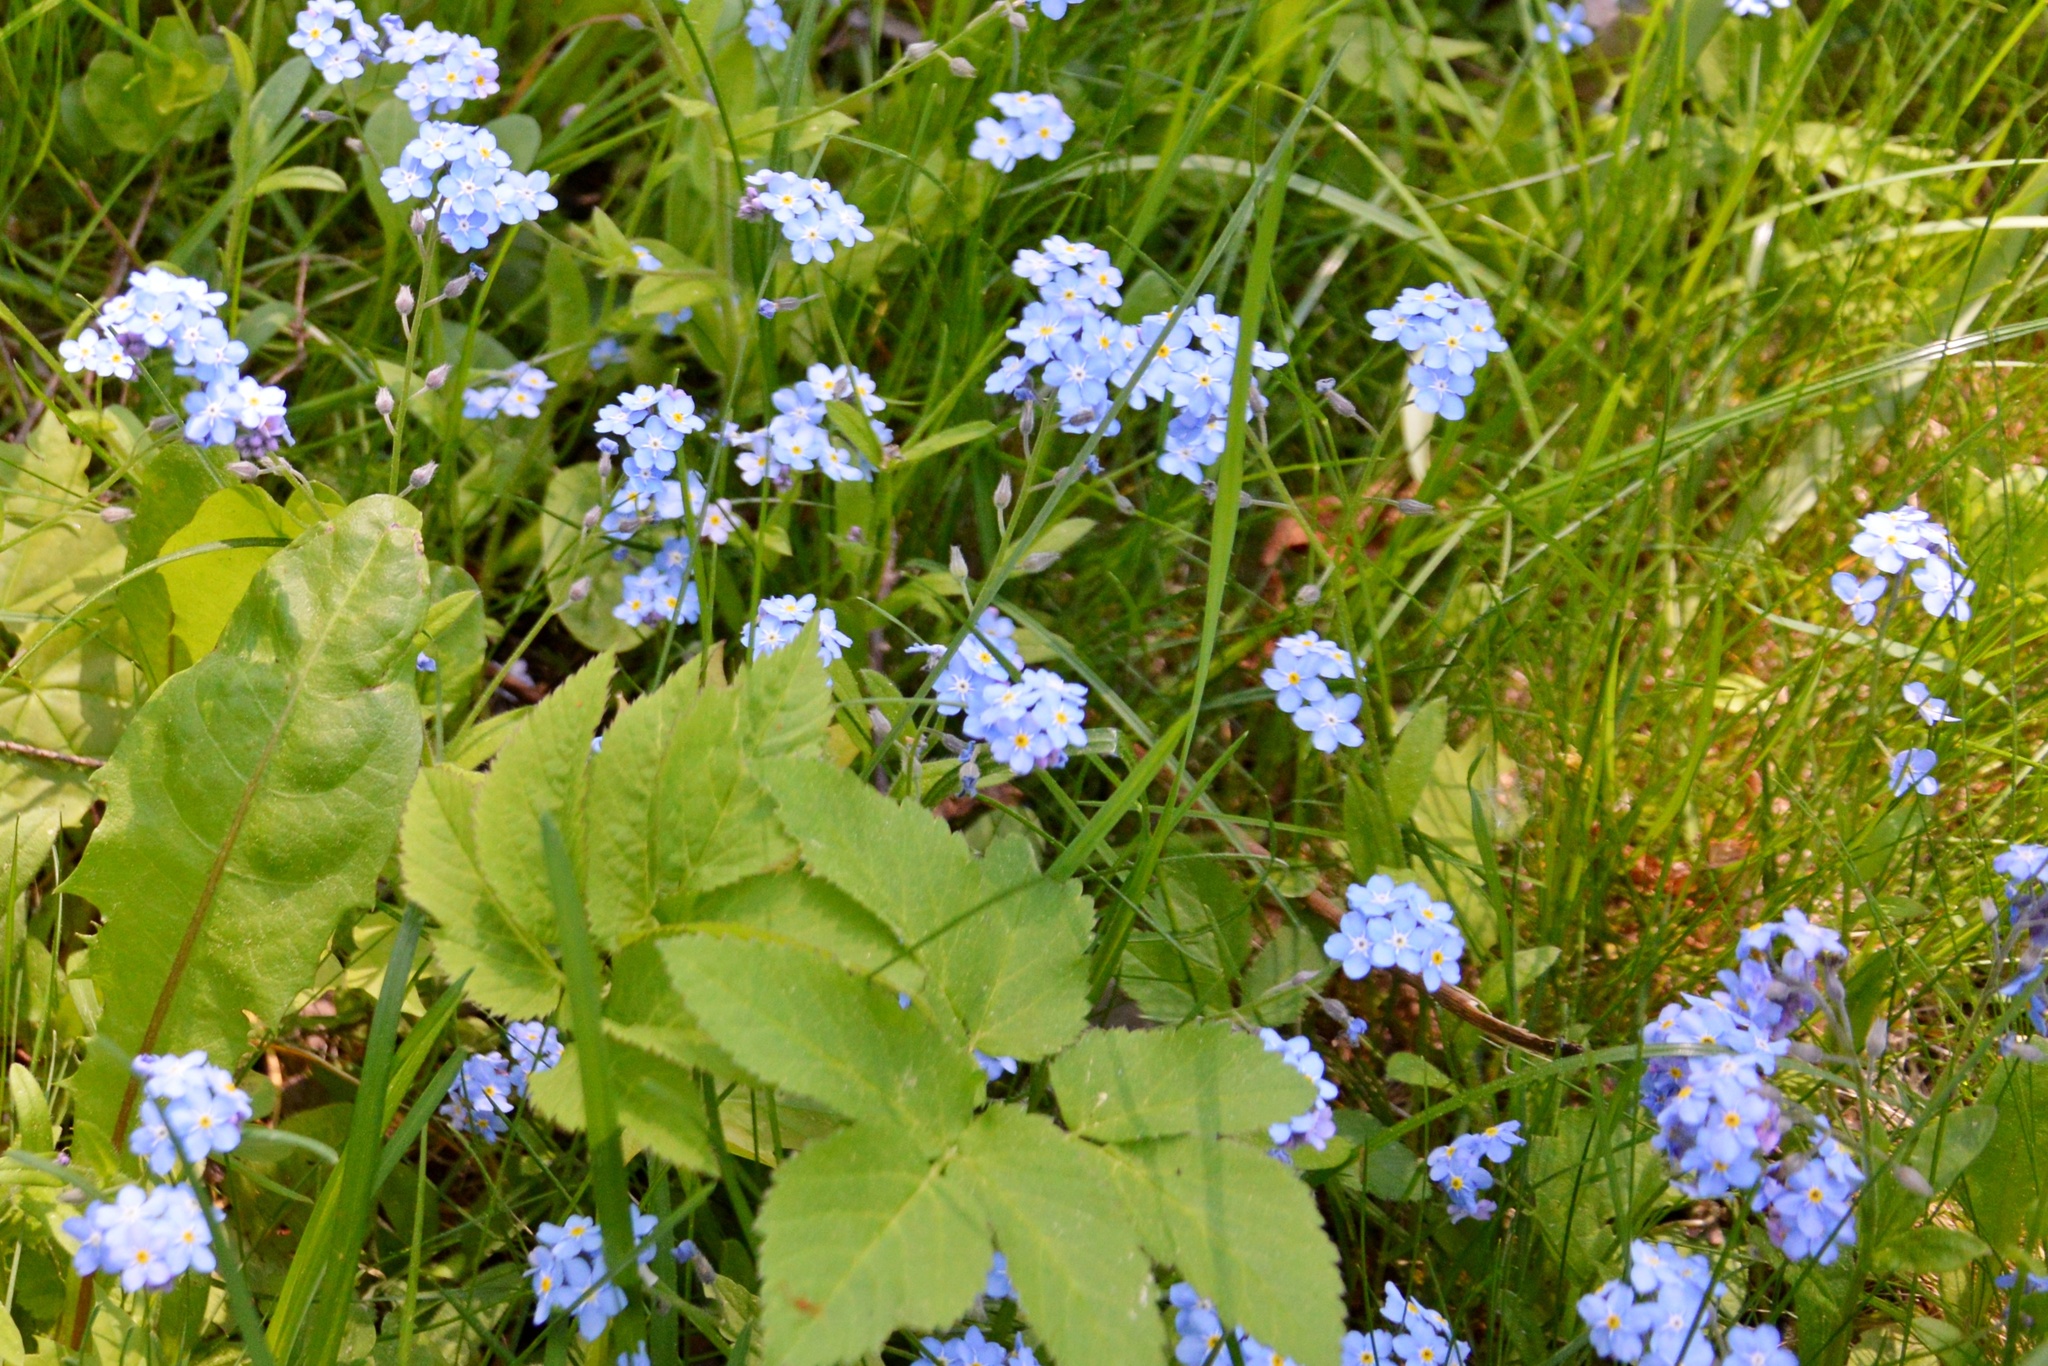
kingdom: Plantae
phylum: Tracheophyta
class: Magnoliopsida
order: Boraginales
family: Boraginaceae
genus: Myosotis
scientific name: Myosotis sylvatica
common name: Wood forget-me-not
